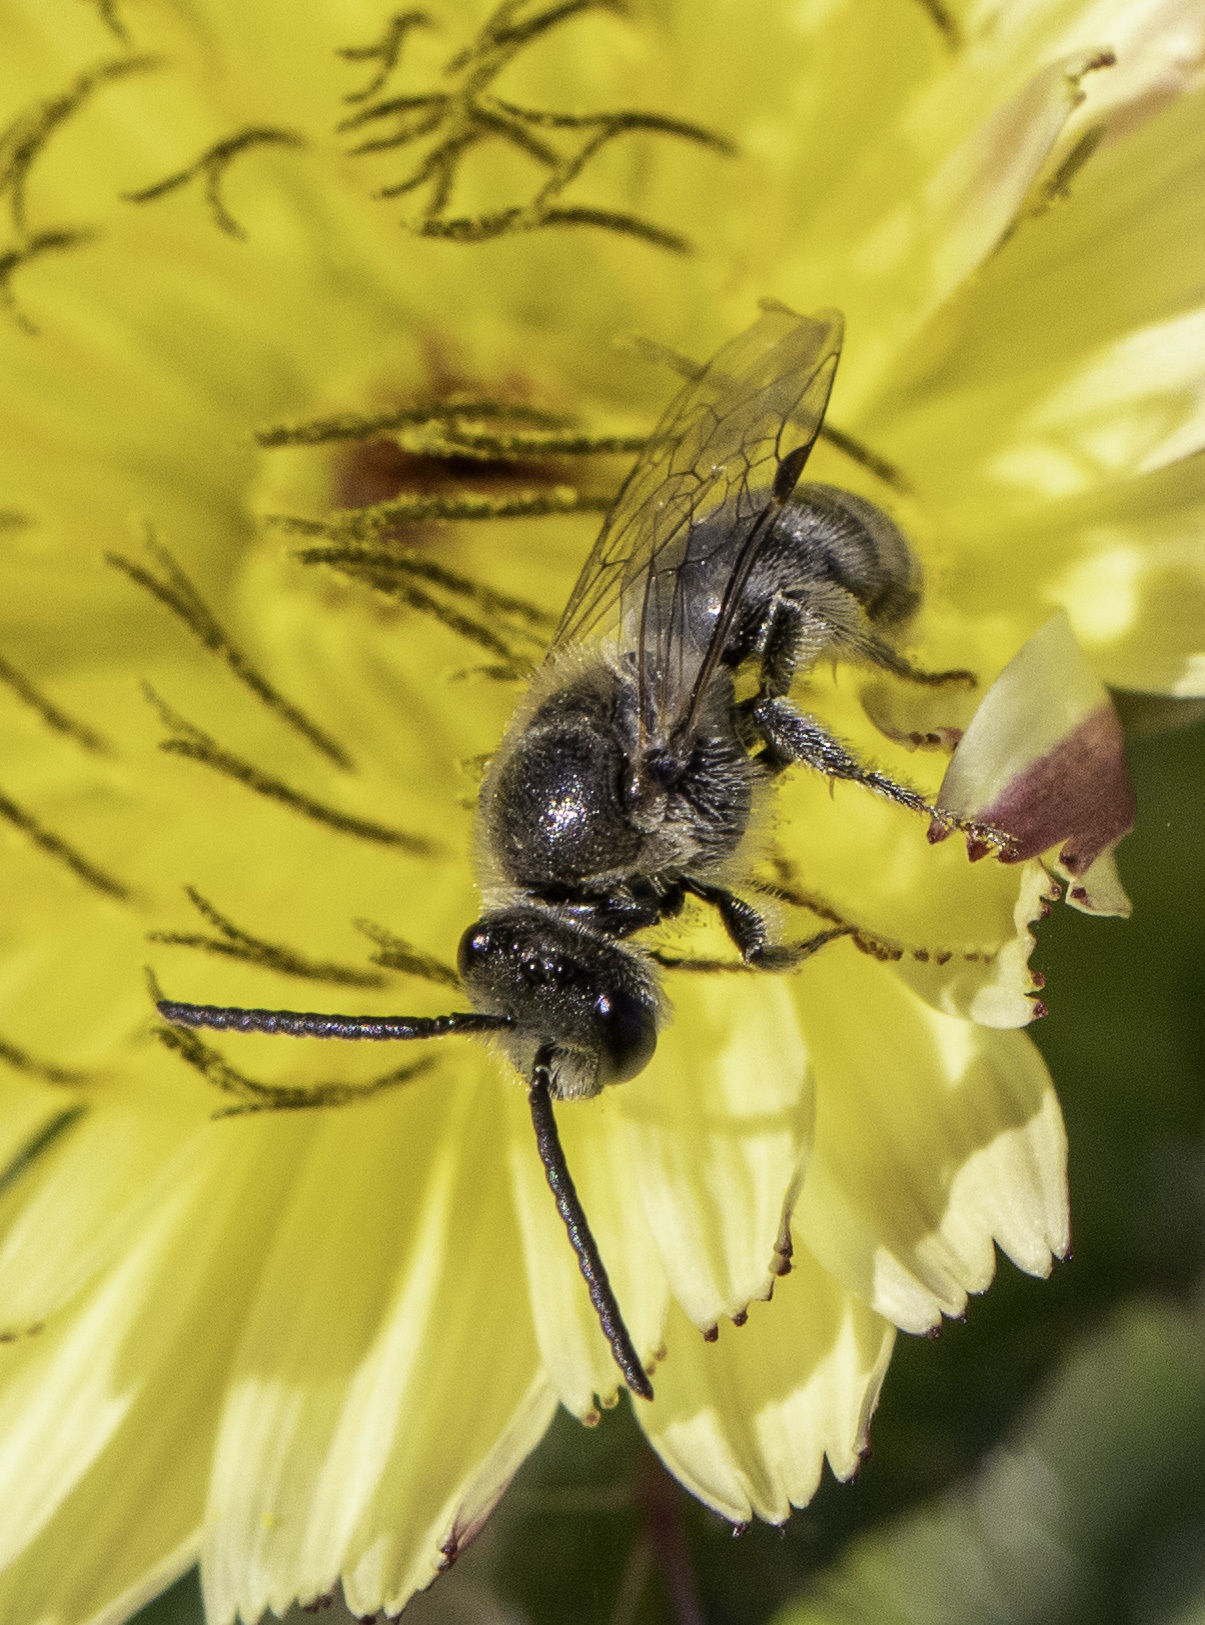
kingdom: Animalia
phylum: Arthropoda
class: Insecta
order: Hymenoptera
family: Halictidae
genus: Lasioglossum
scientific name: Lasioglossum sisymbrii
